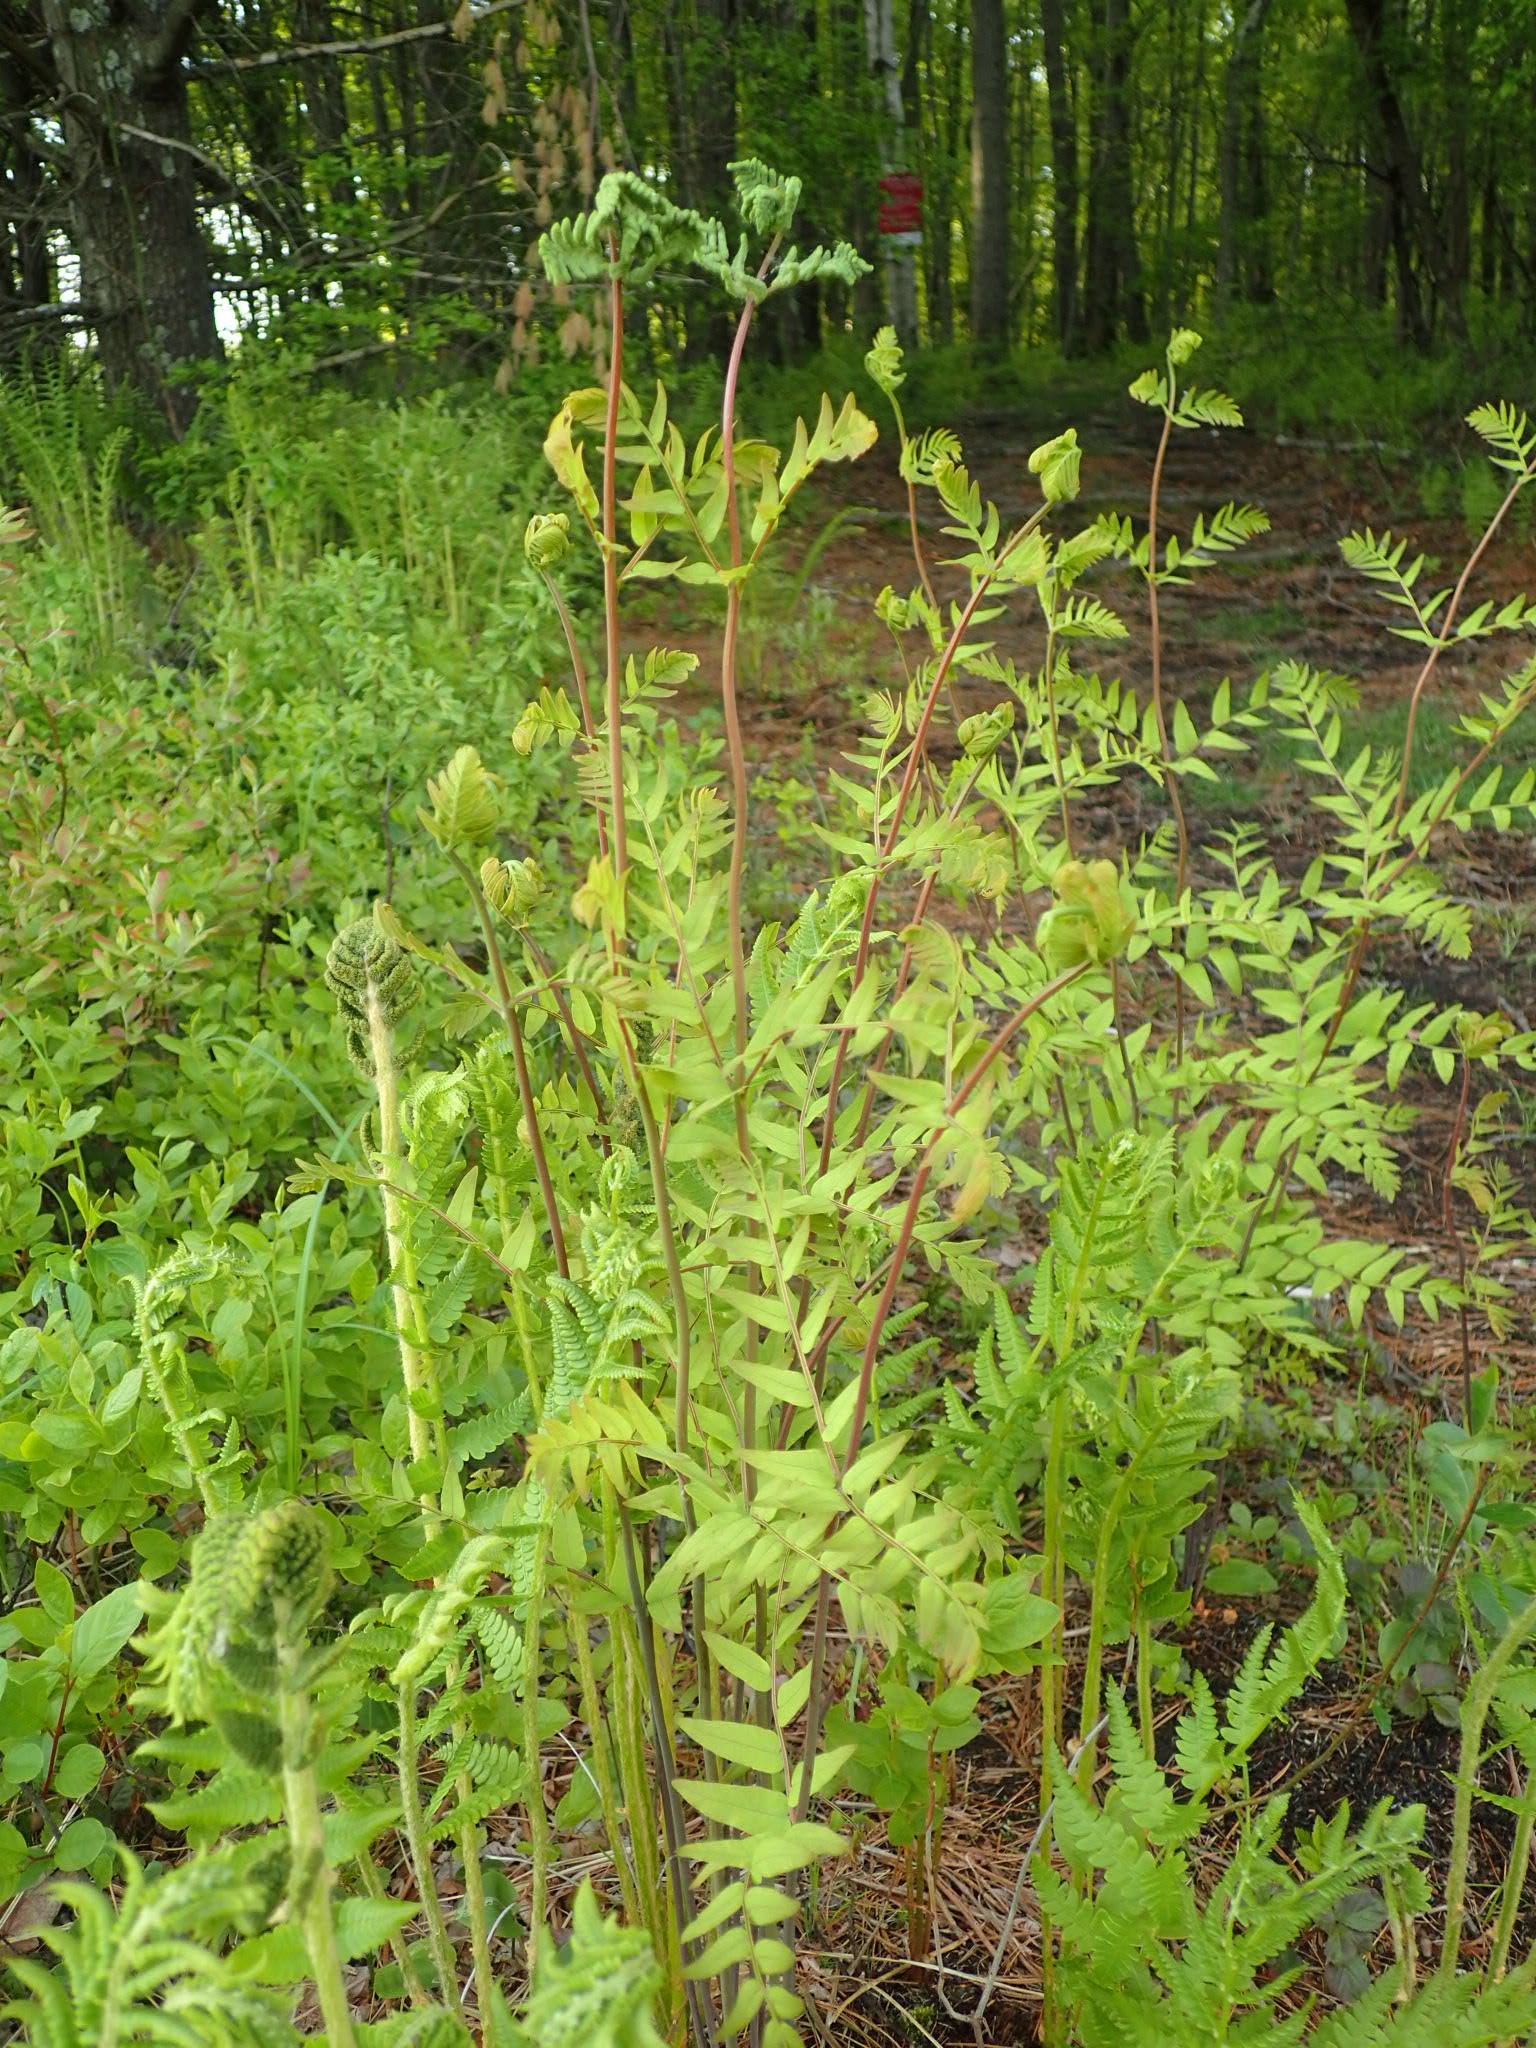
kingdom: Plantae
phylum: Tracheophyta
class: Polypodiopsida
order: Osmundales
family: Osmundaceae
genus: Osmunda
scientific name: Osmunda spectabilis
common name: American royal fern
